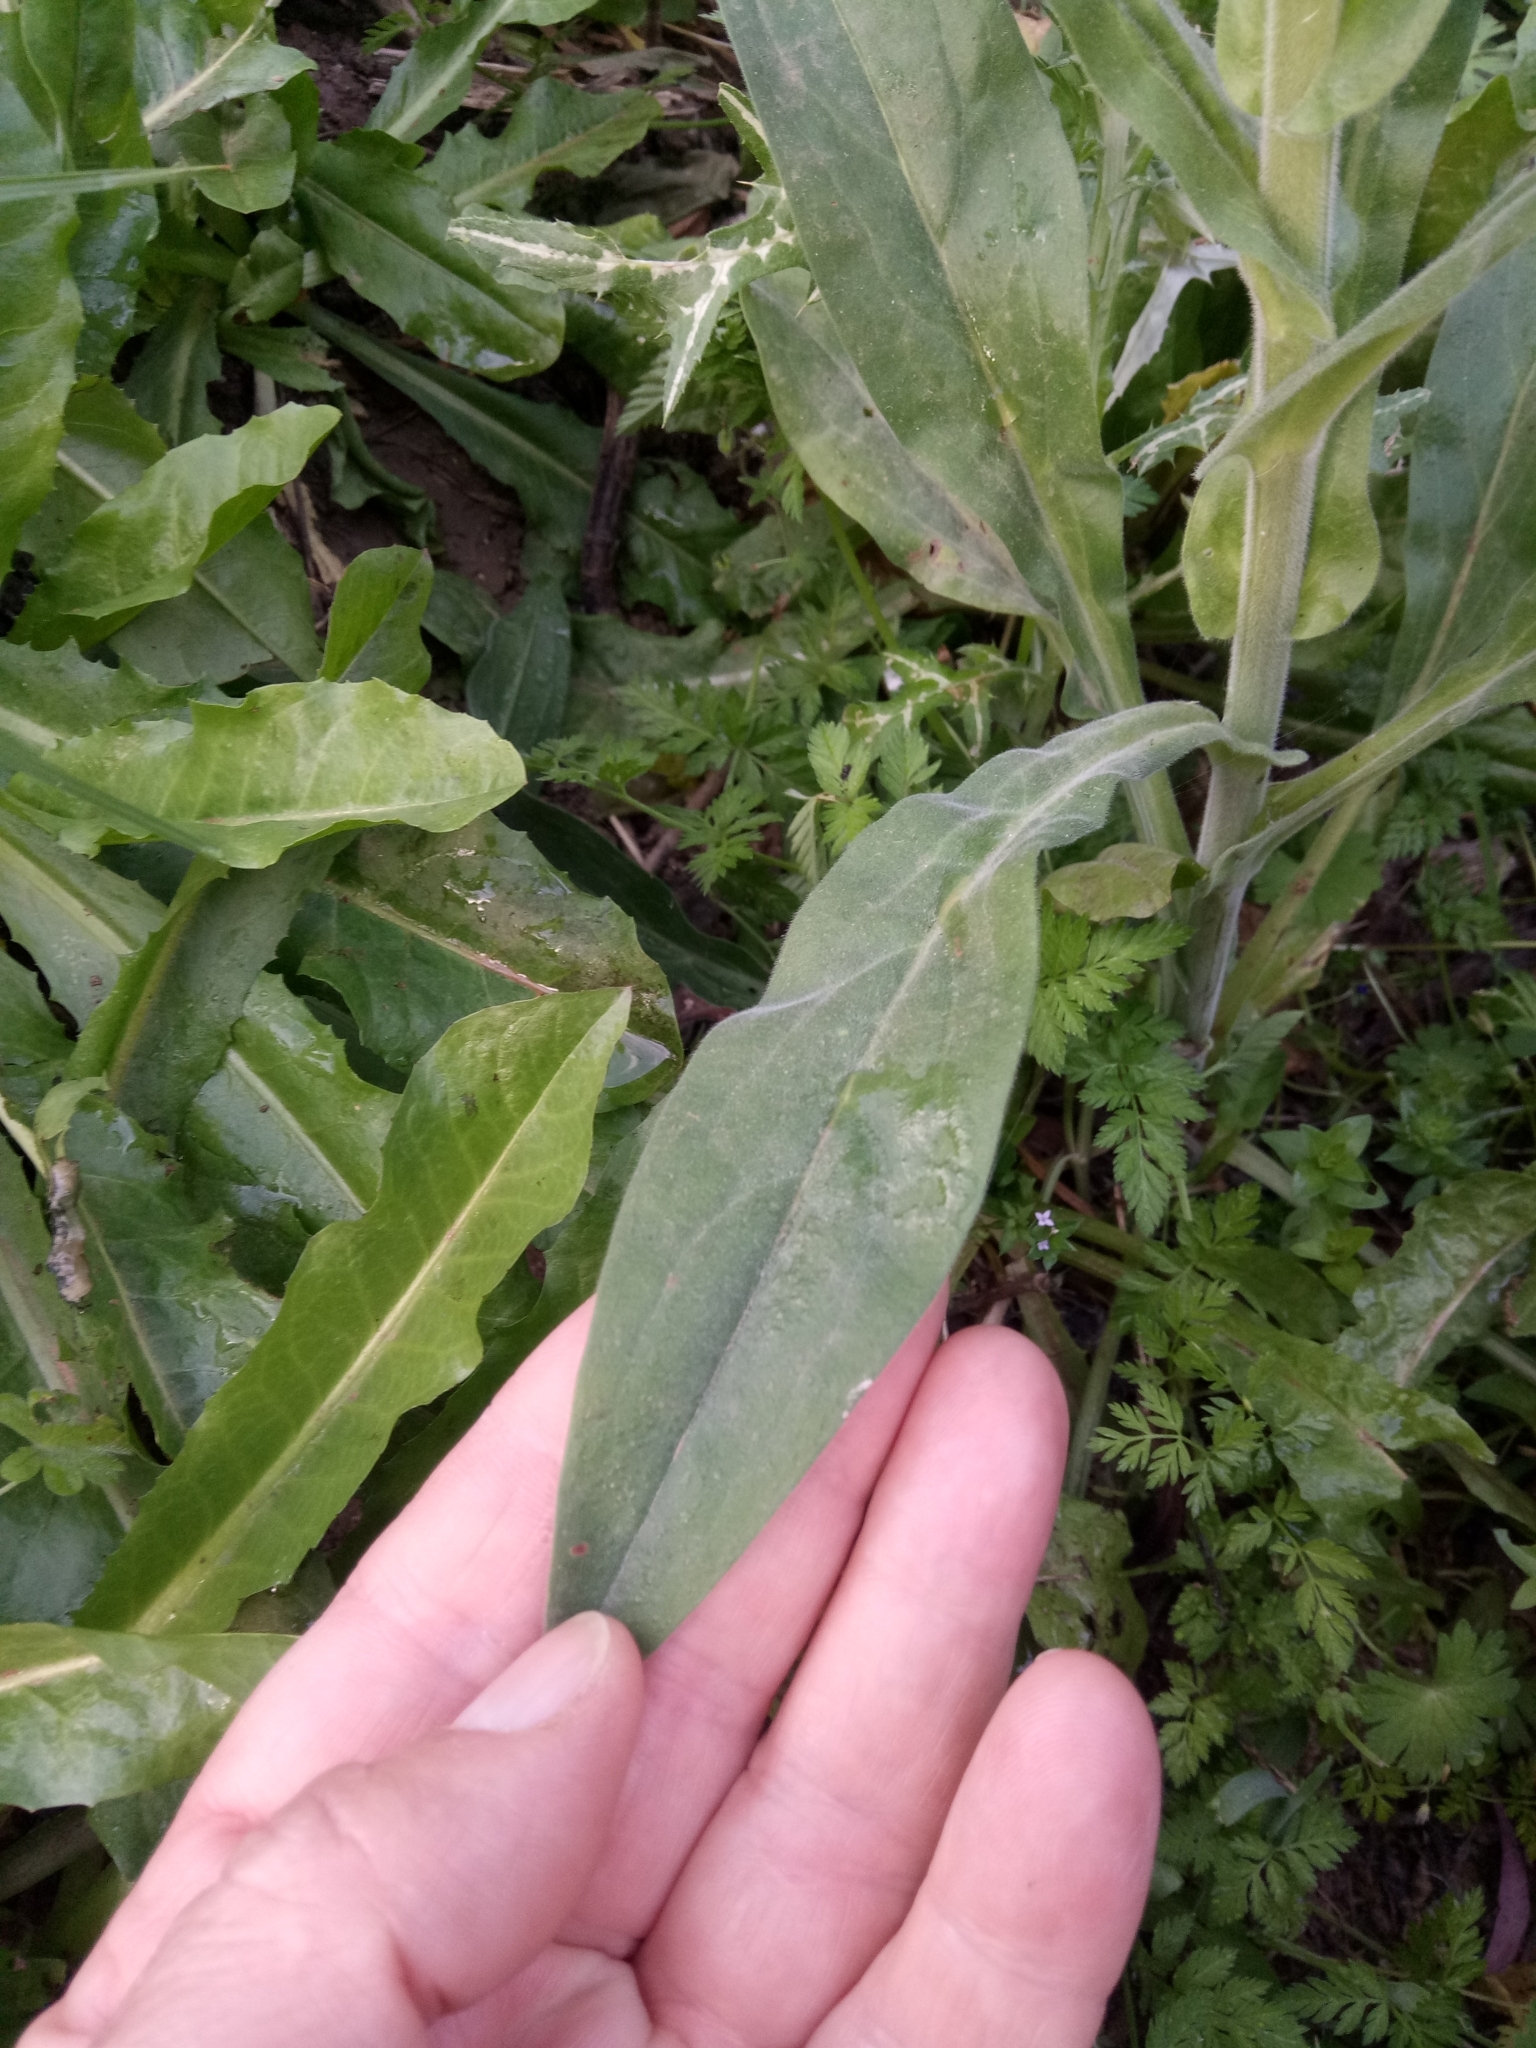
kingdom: Plantae
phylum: Tracheophyta
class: Magnoliopsida
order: Boraginales
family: Boraginaceae
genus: Cynoglossum
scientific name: Cynoglossum creticum
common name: Blue hound's tongue
